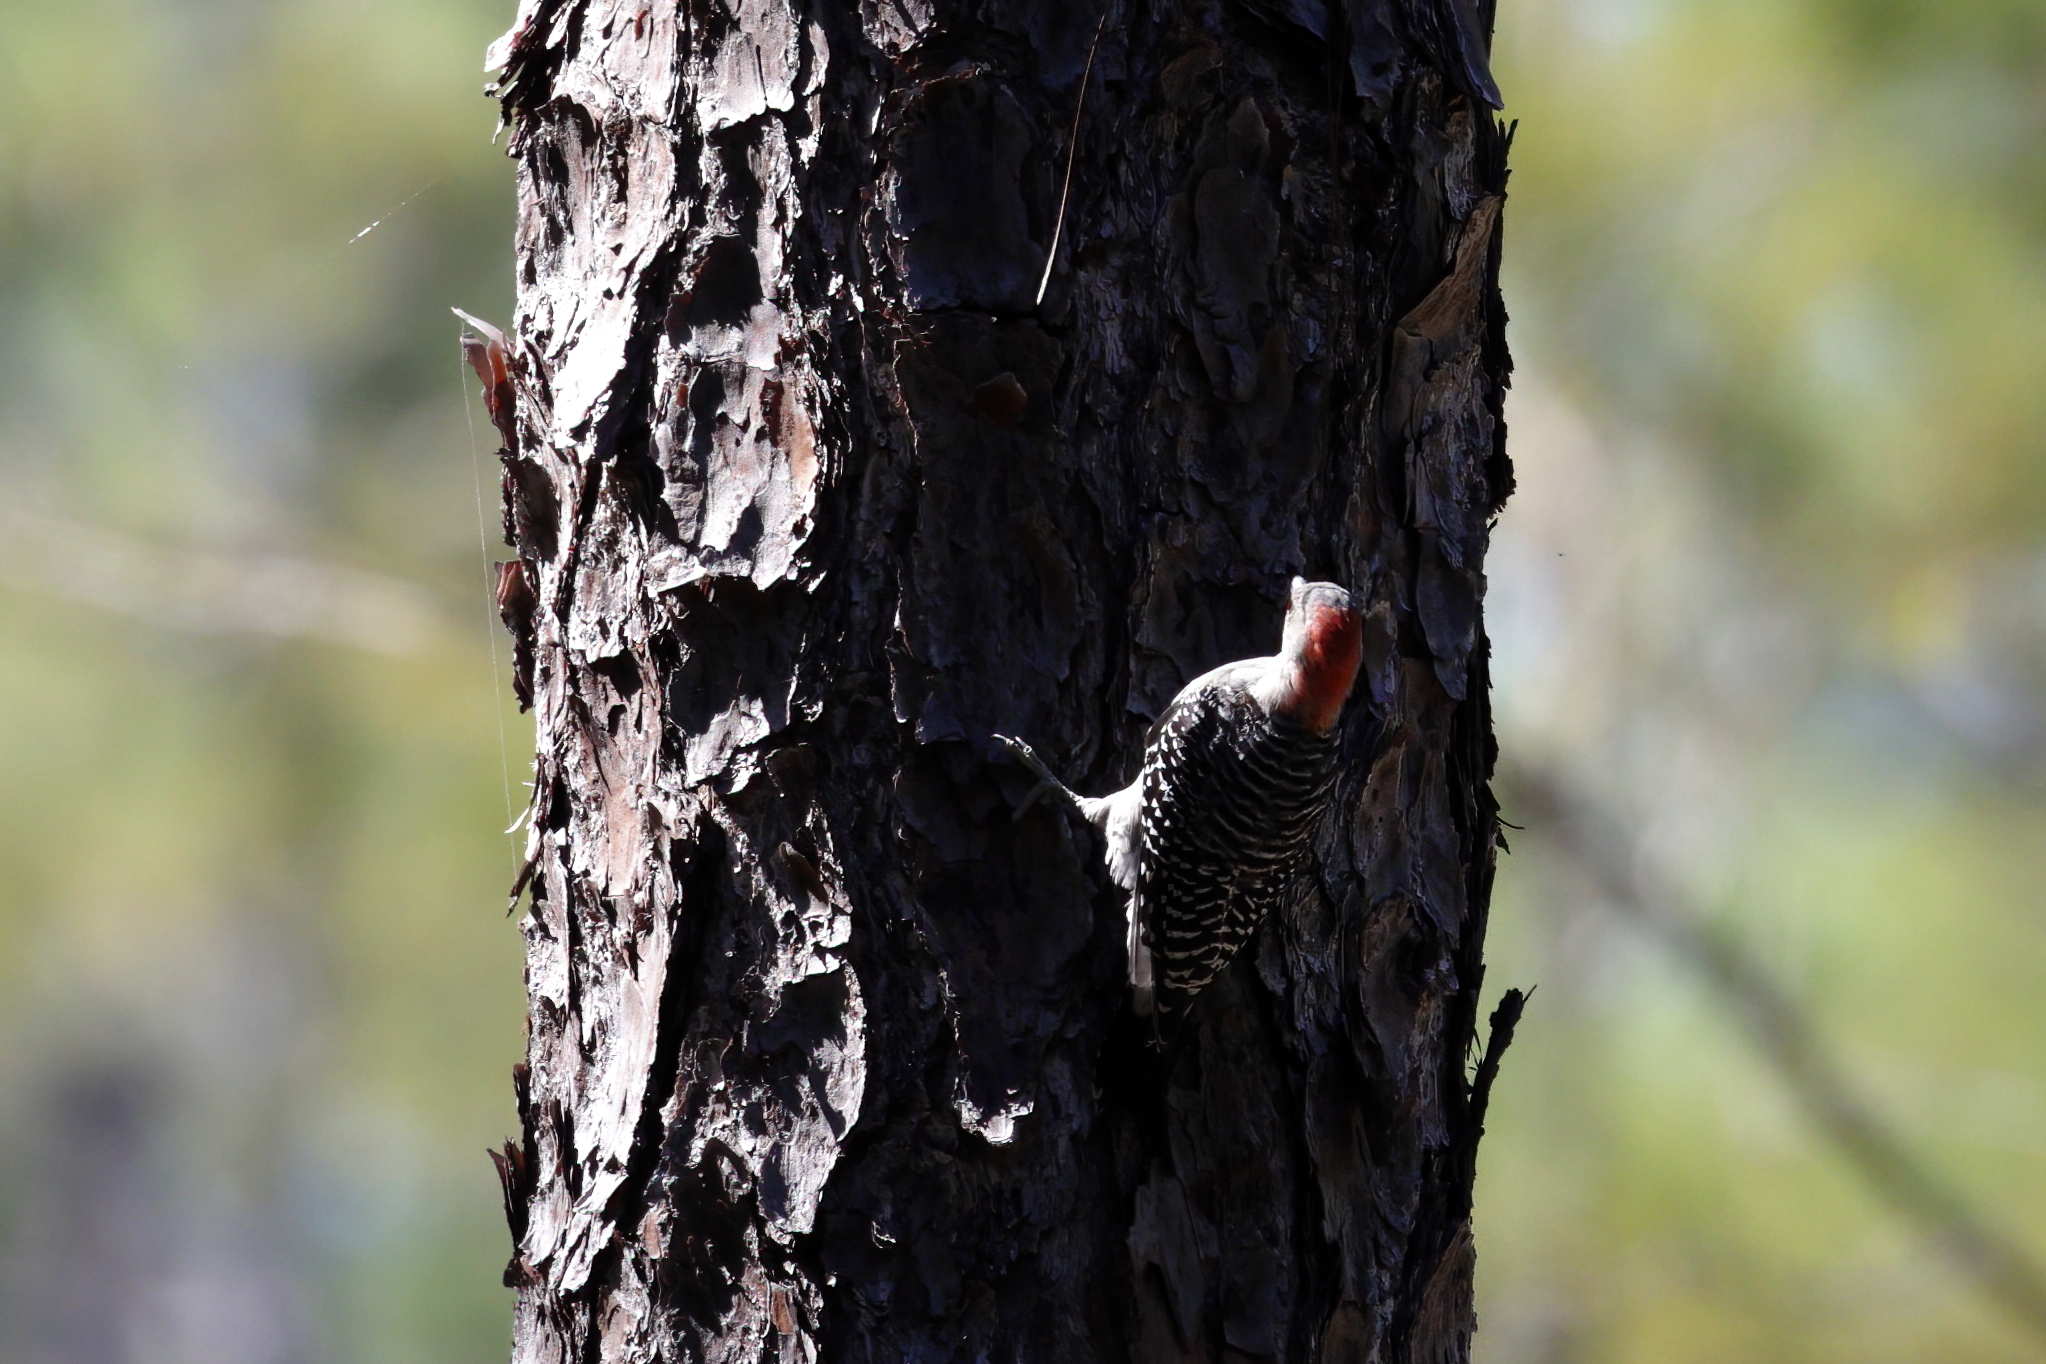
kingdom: Animalia
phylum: Chordata
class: Aves
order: Piciformes
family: Picidae
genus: Melanerpes
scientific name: Melanerpes carolinus
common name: Red-bellied woodpecker
